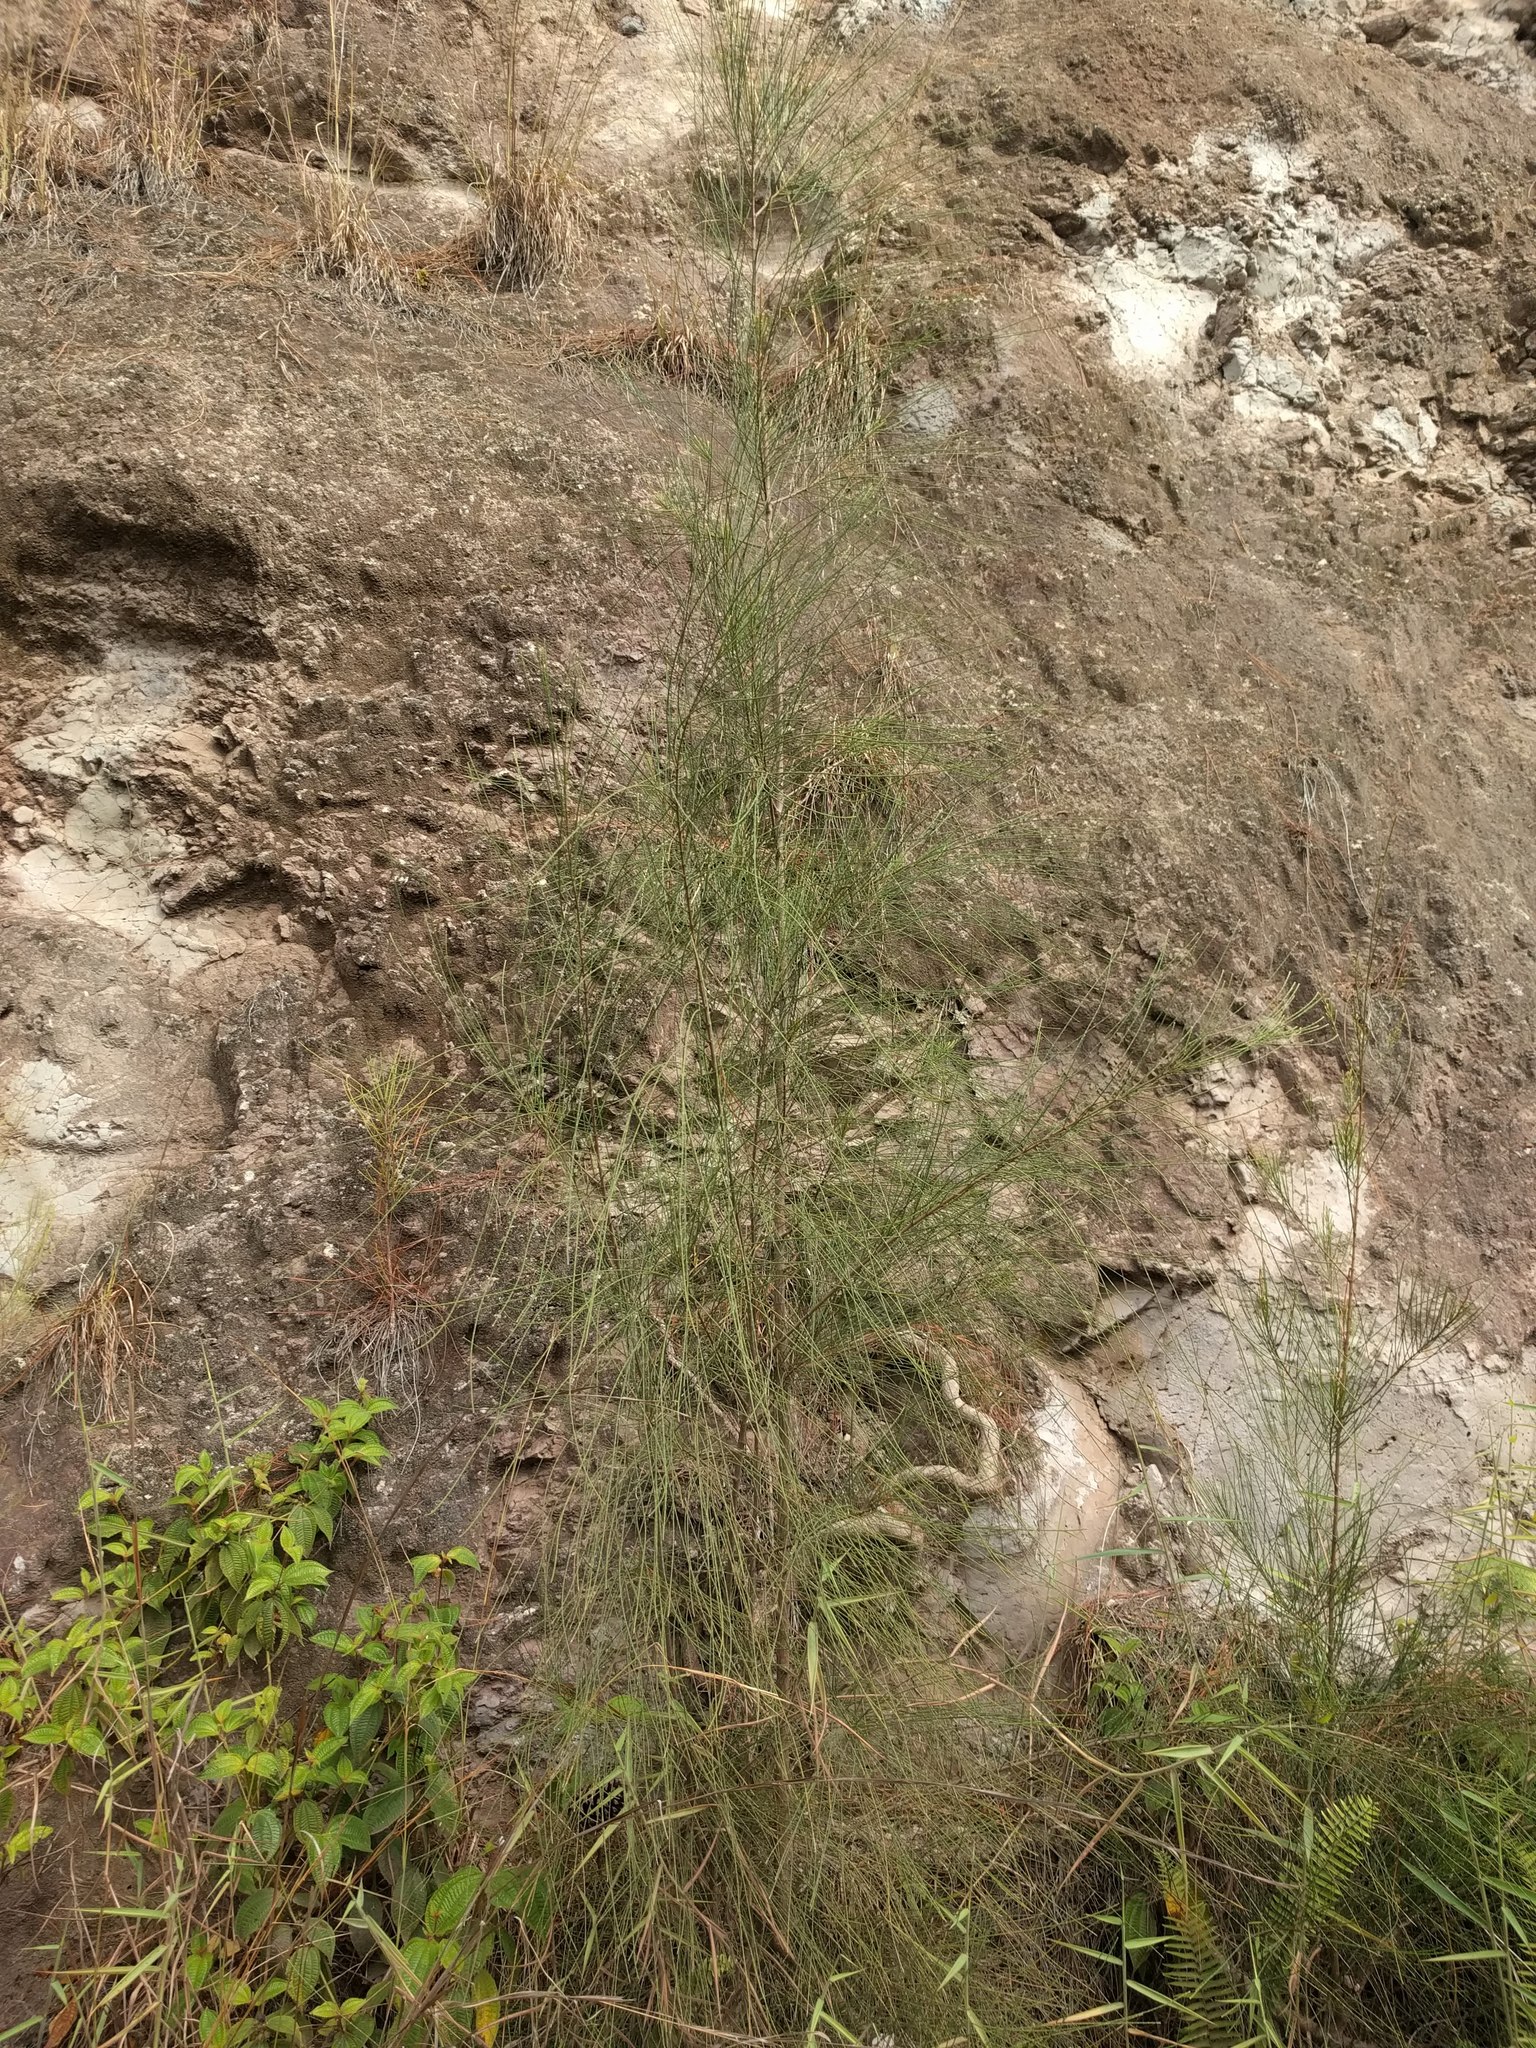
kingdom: Plantae
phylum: Tracheophyta
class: Magnoliopsida
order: Fagales
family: Casuarinaceae
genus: Casuarina
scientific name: Casuarina equisetifolia
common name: Beach sheoak
